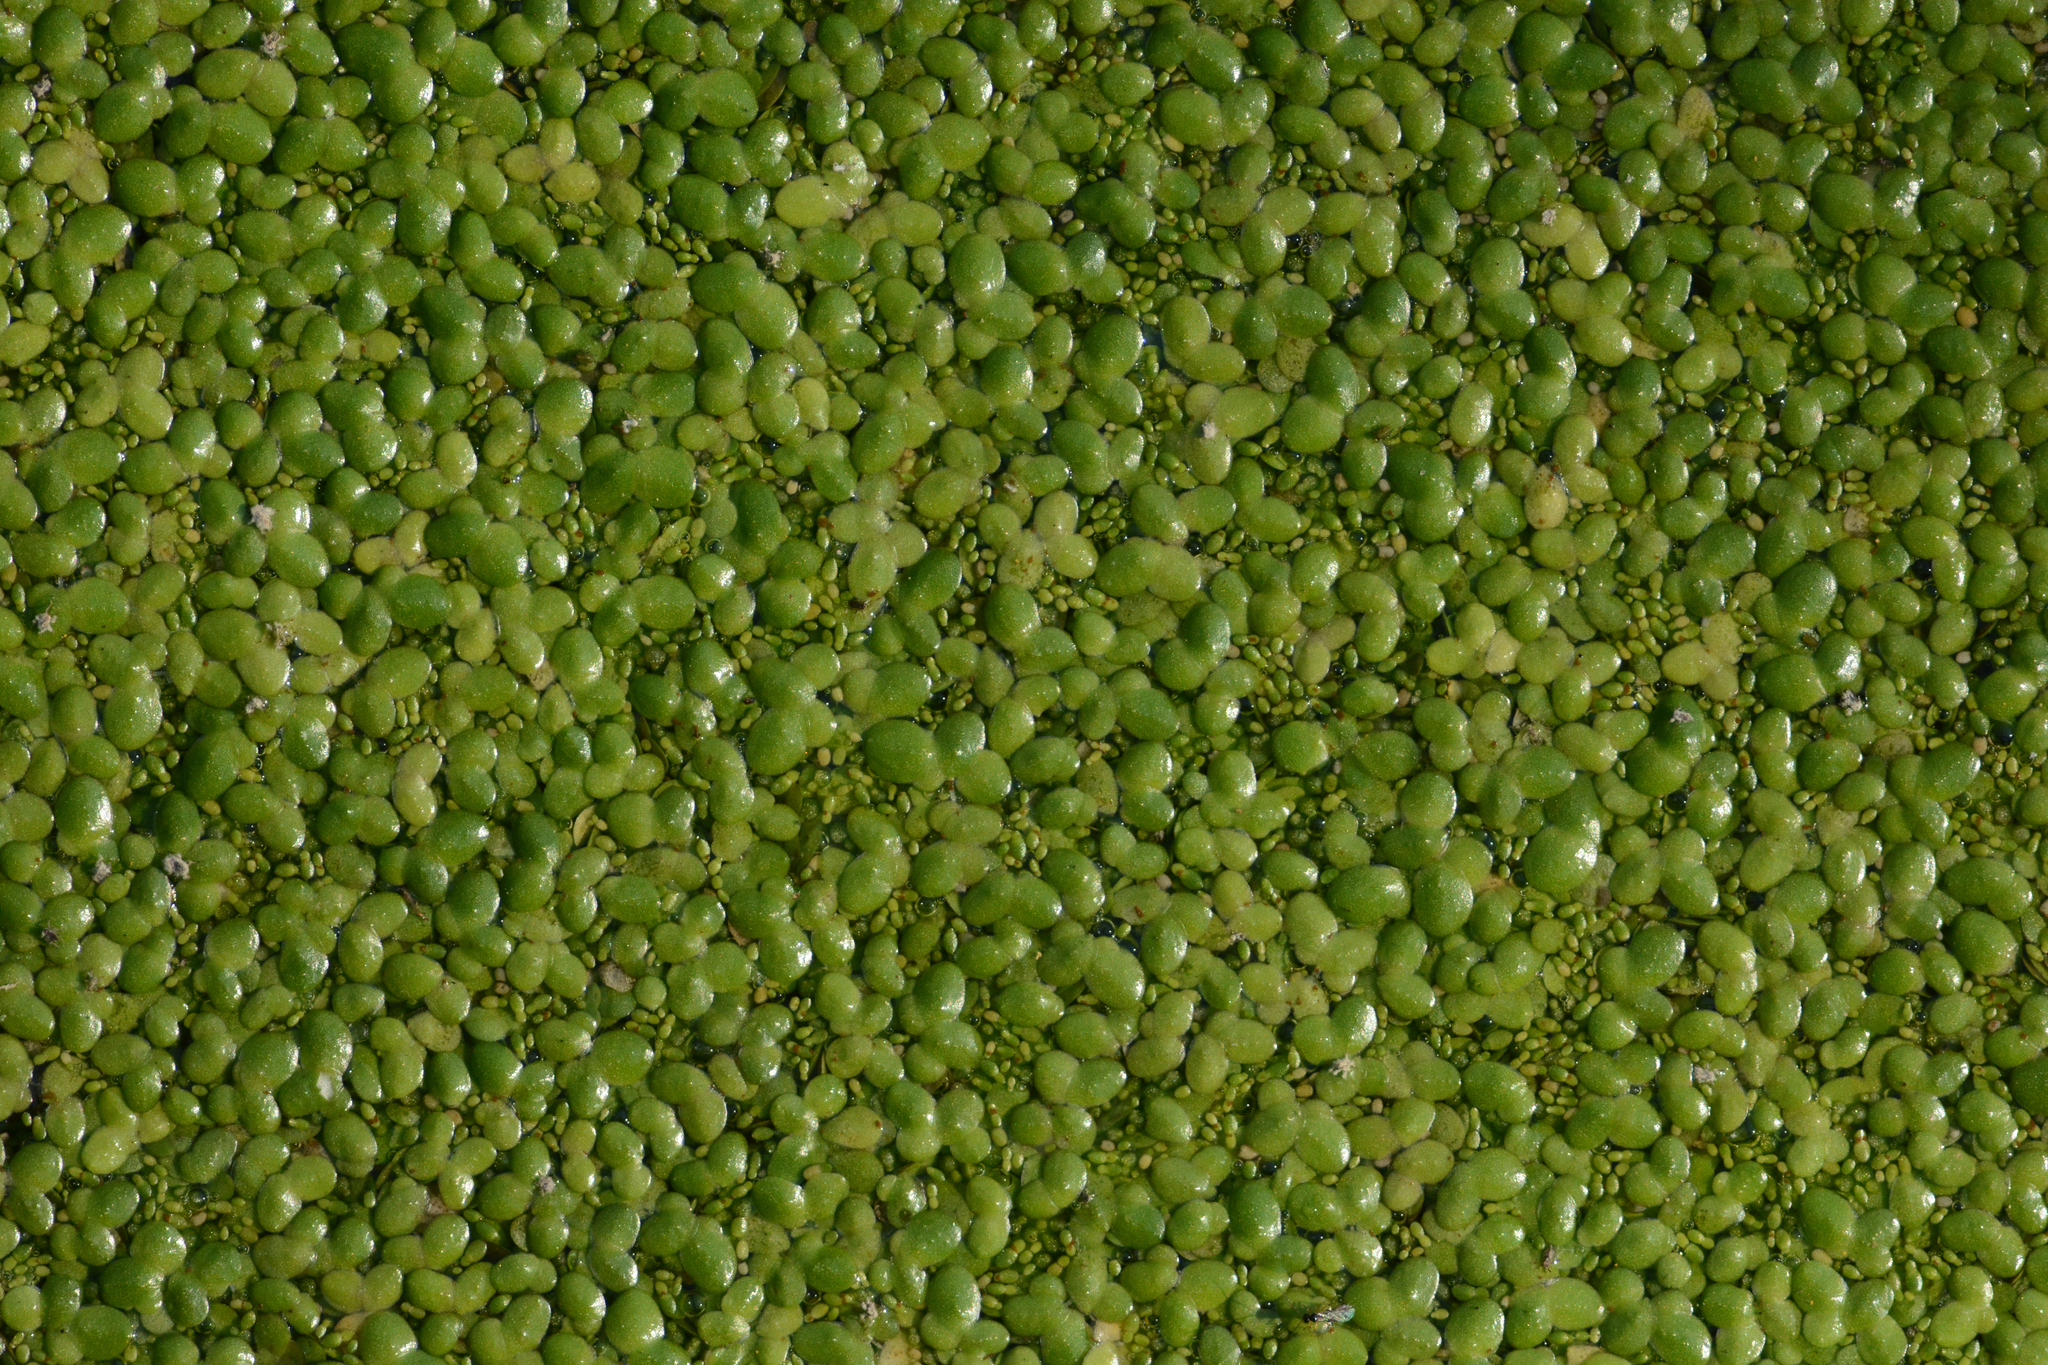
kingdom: Plantae
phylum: Tracheophyta
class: Liliopsida
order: Alismatales
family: Araceae
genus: Lemna
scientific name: Lemna minor
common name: Common duckweed
